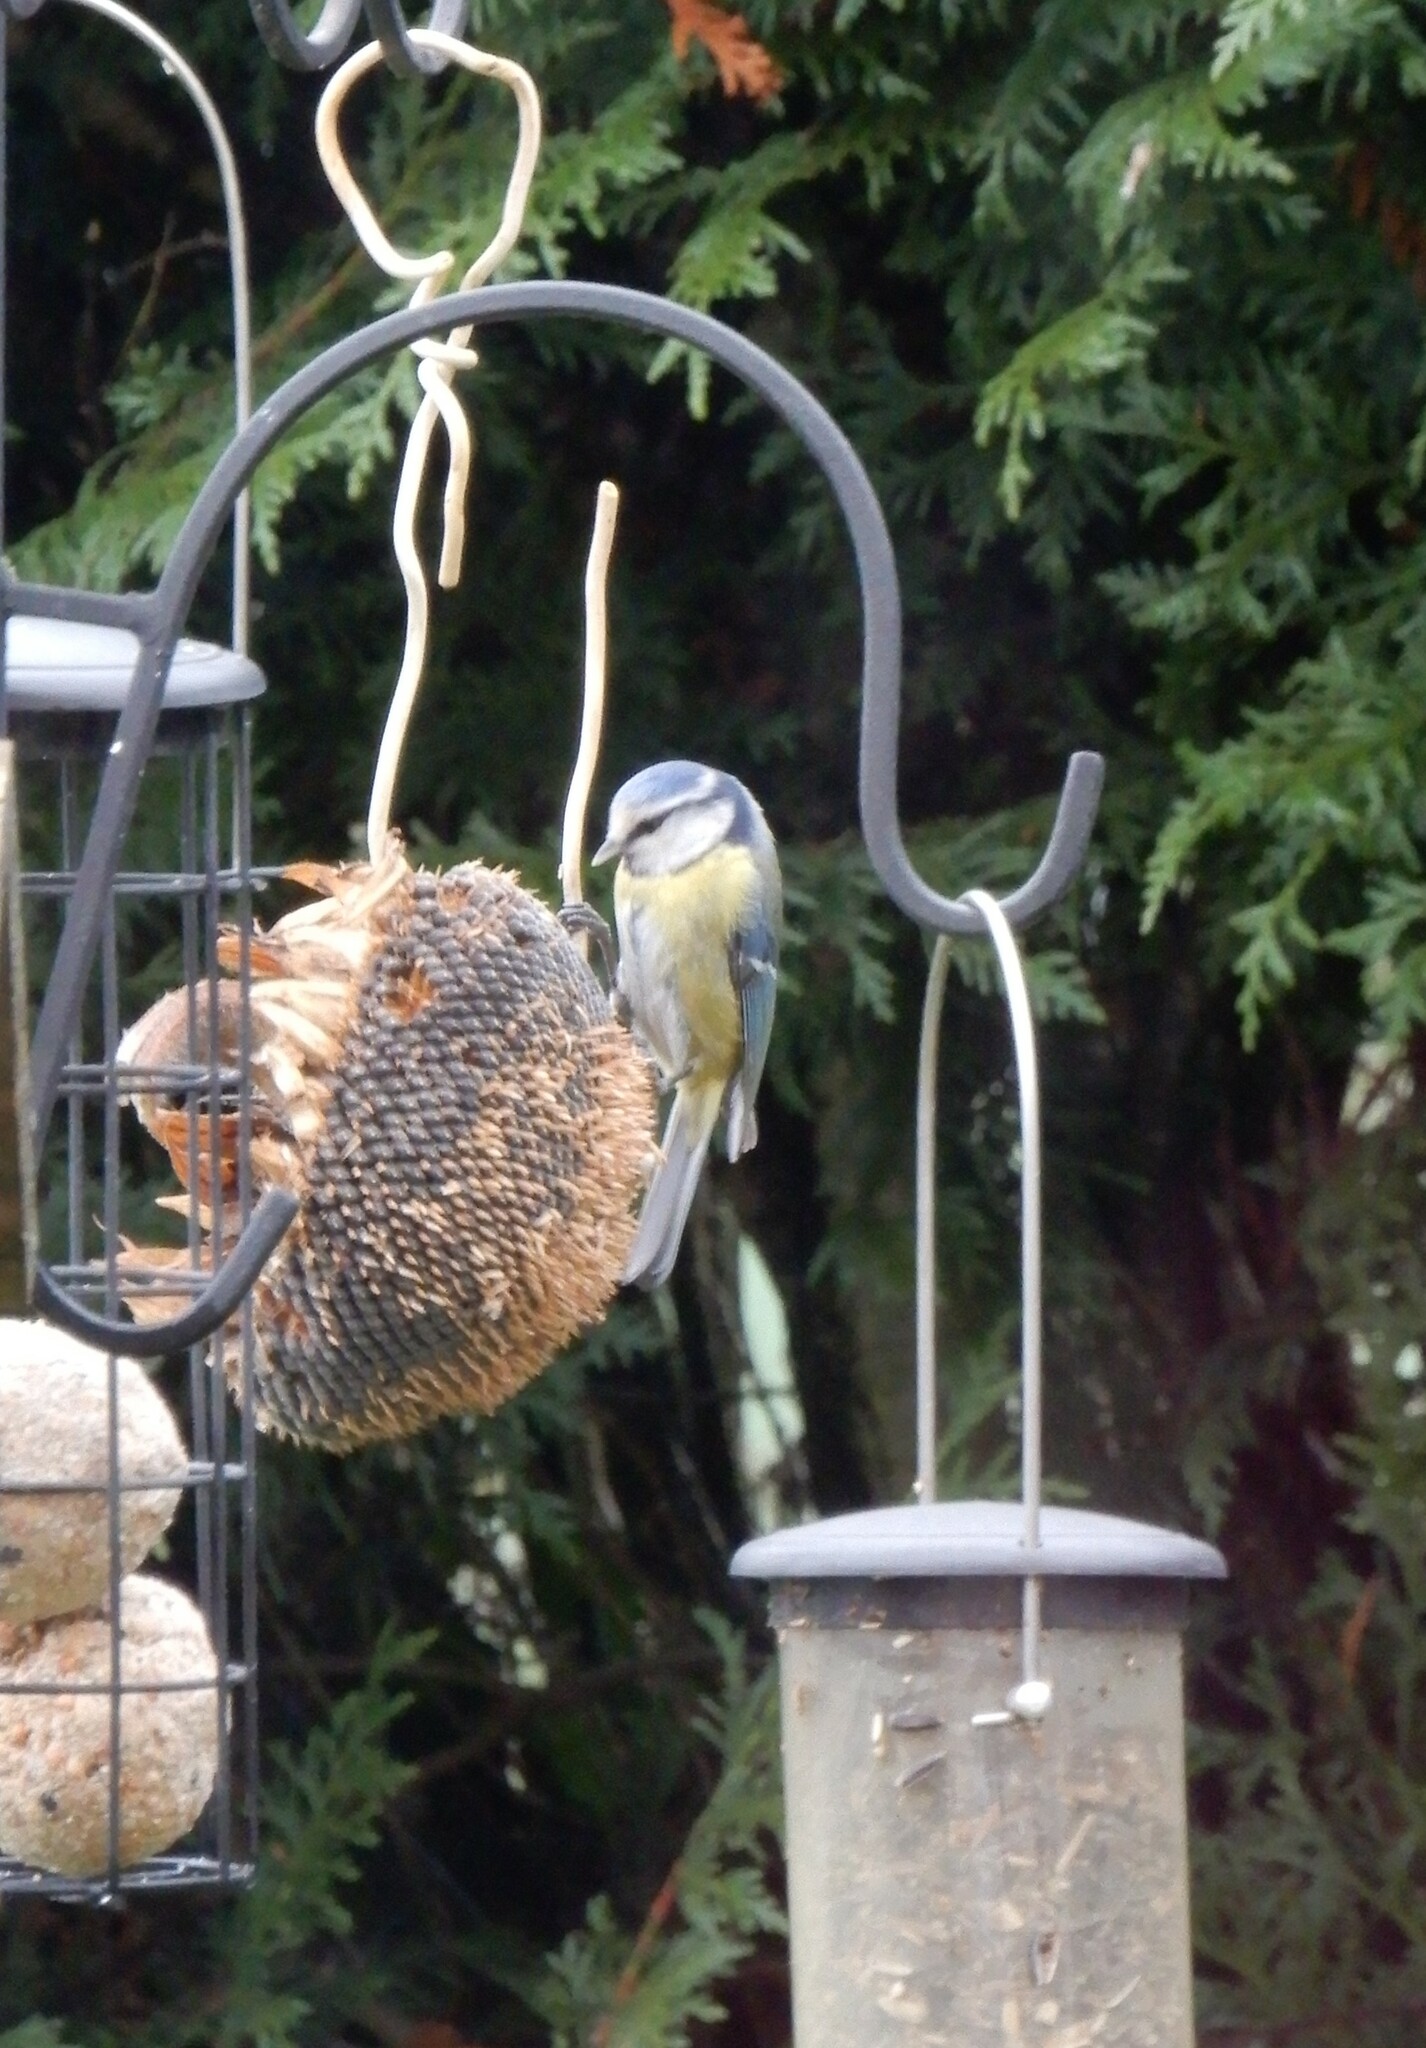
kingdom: Animalia
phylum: Chordata
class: Aves
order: Passeriformes
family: Paridae
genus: Cyanistes
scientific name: Cyanistes caeruleus
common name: Eurasian blue tit
